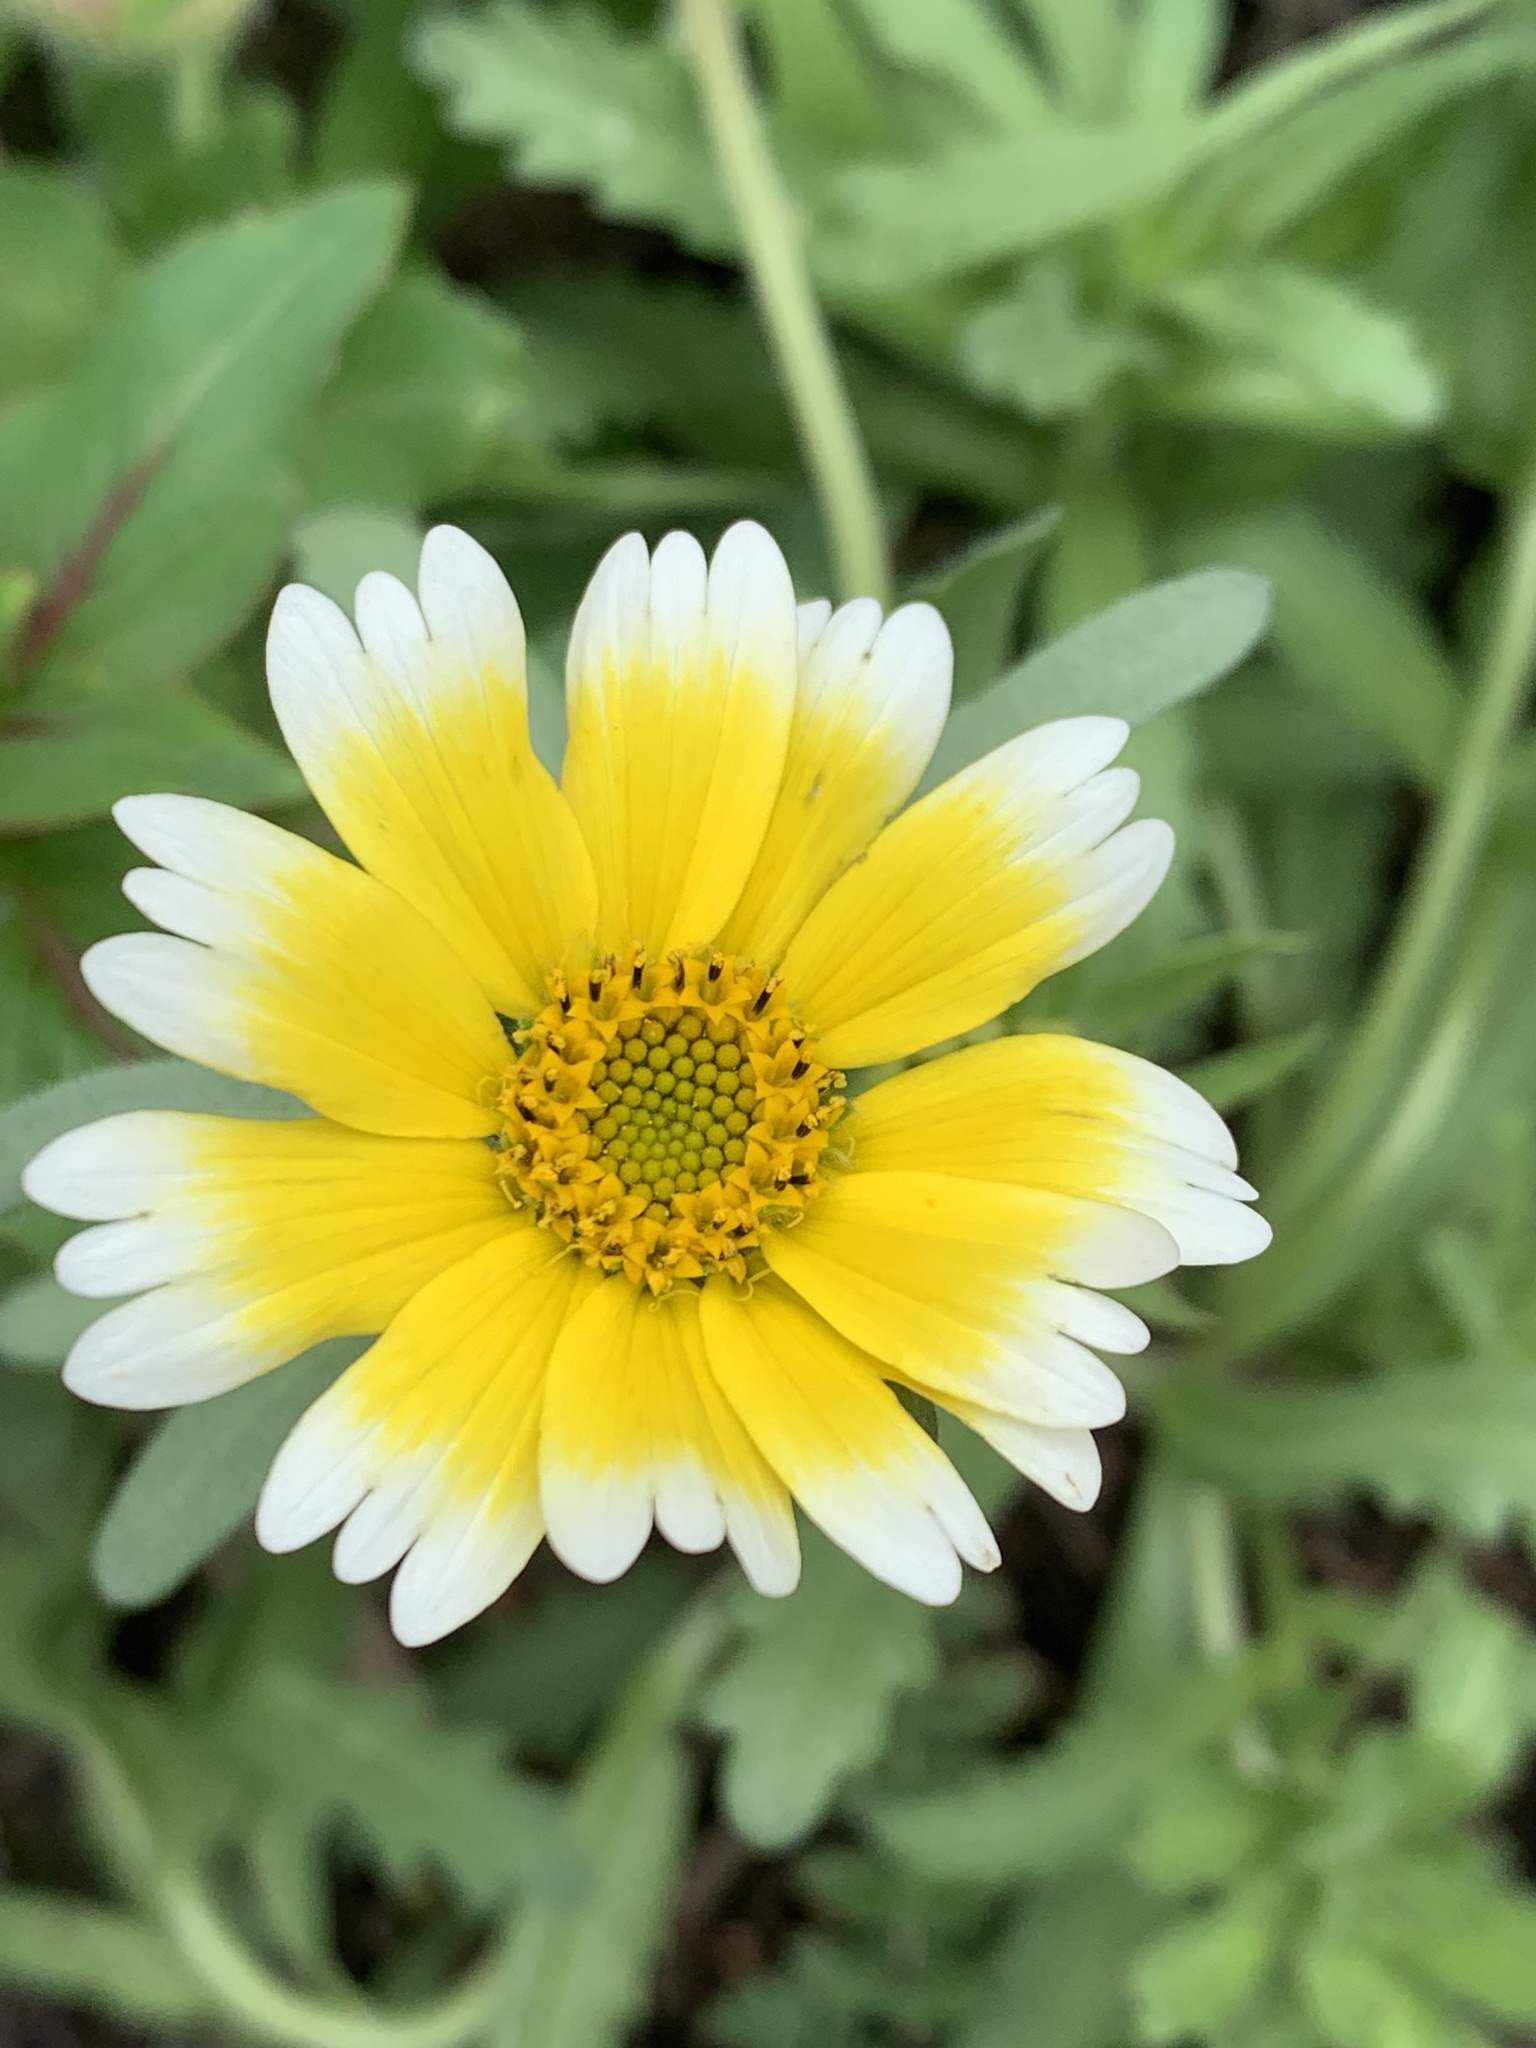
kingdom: Plantae
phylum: Tracheophyta
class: Magnoliopsida
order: Asterales
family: Asteraceae
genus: Layia
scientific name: Layia platyglossa
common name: Tidy-tips
